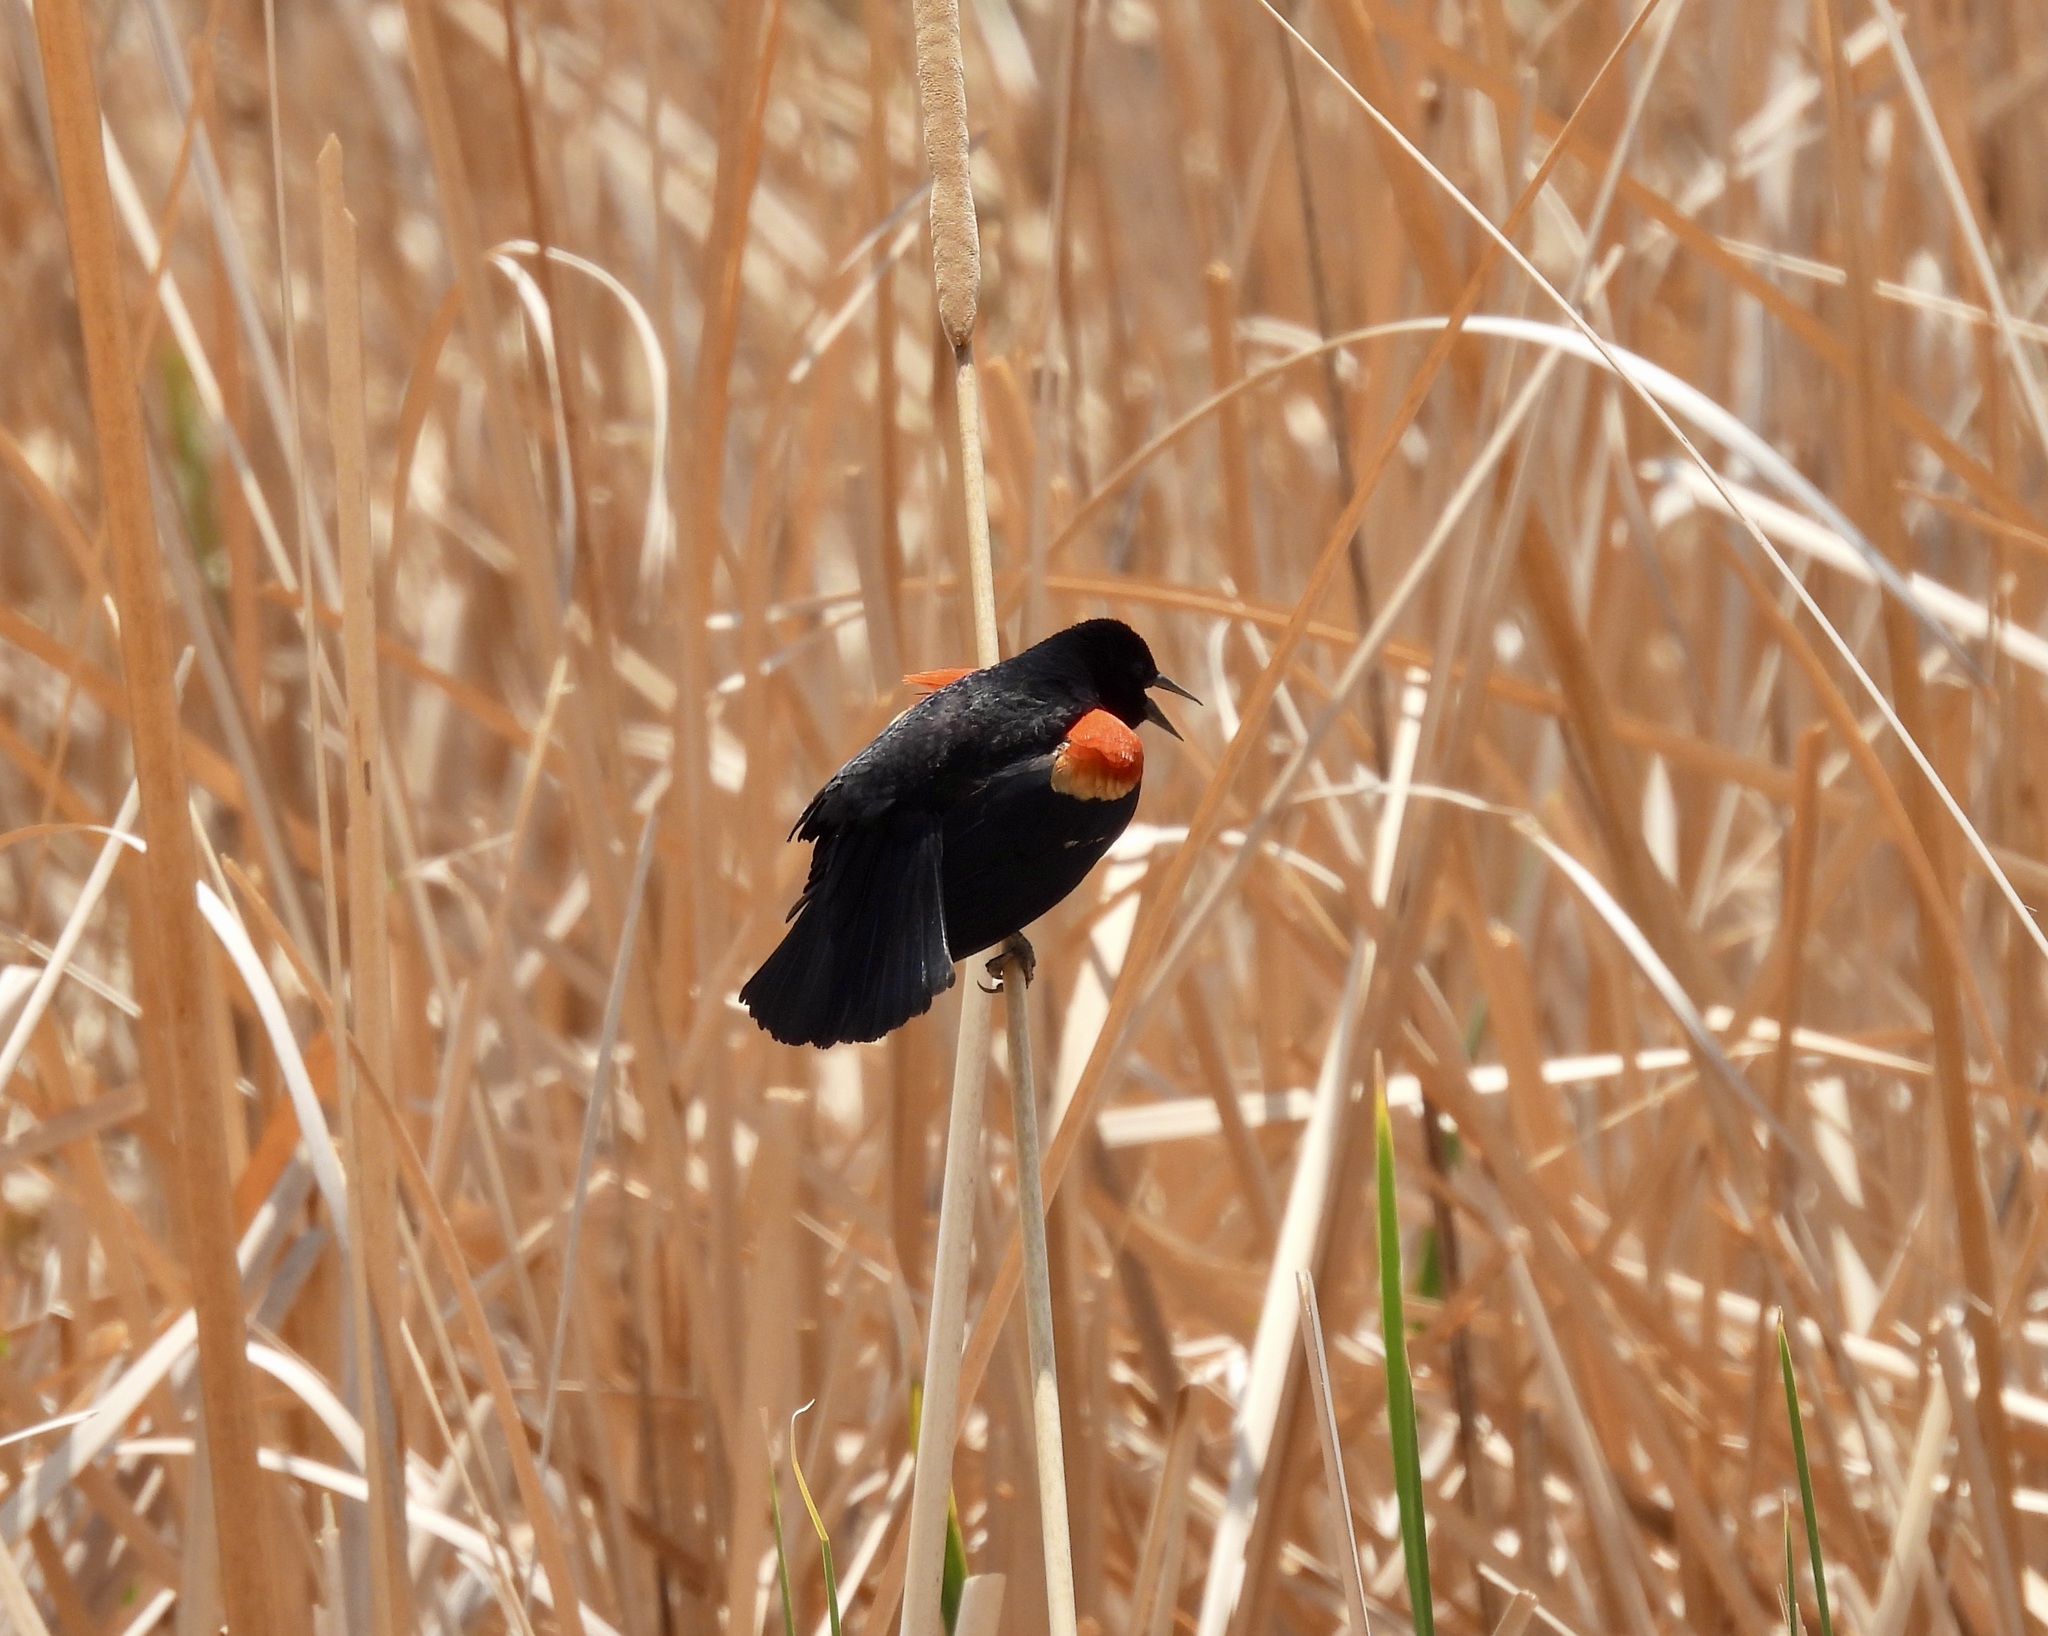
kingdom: Animalia
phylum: Chordata
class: Aves
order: Passeriformes
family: Icteridae
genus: Agelaius
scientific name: Agelaius phoeniceus
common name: Red-winged blackbird
